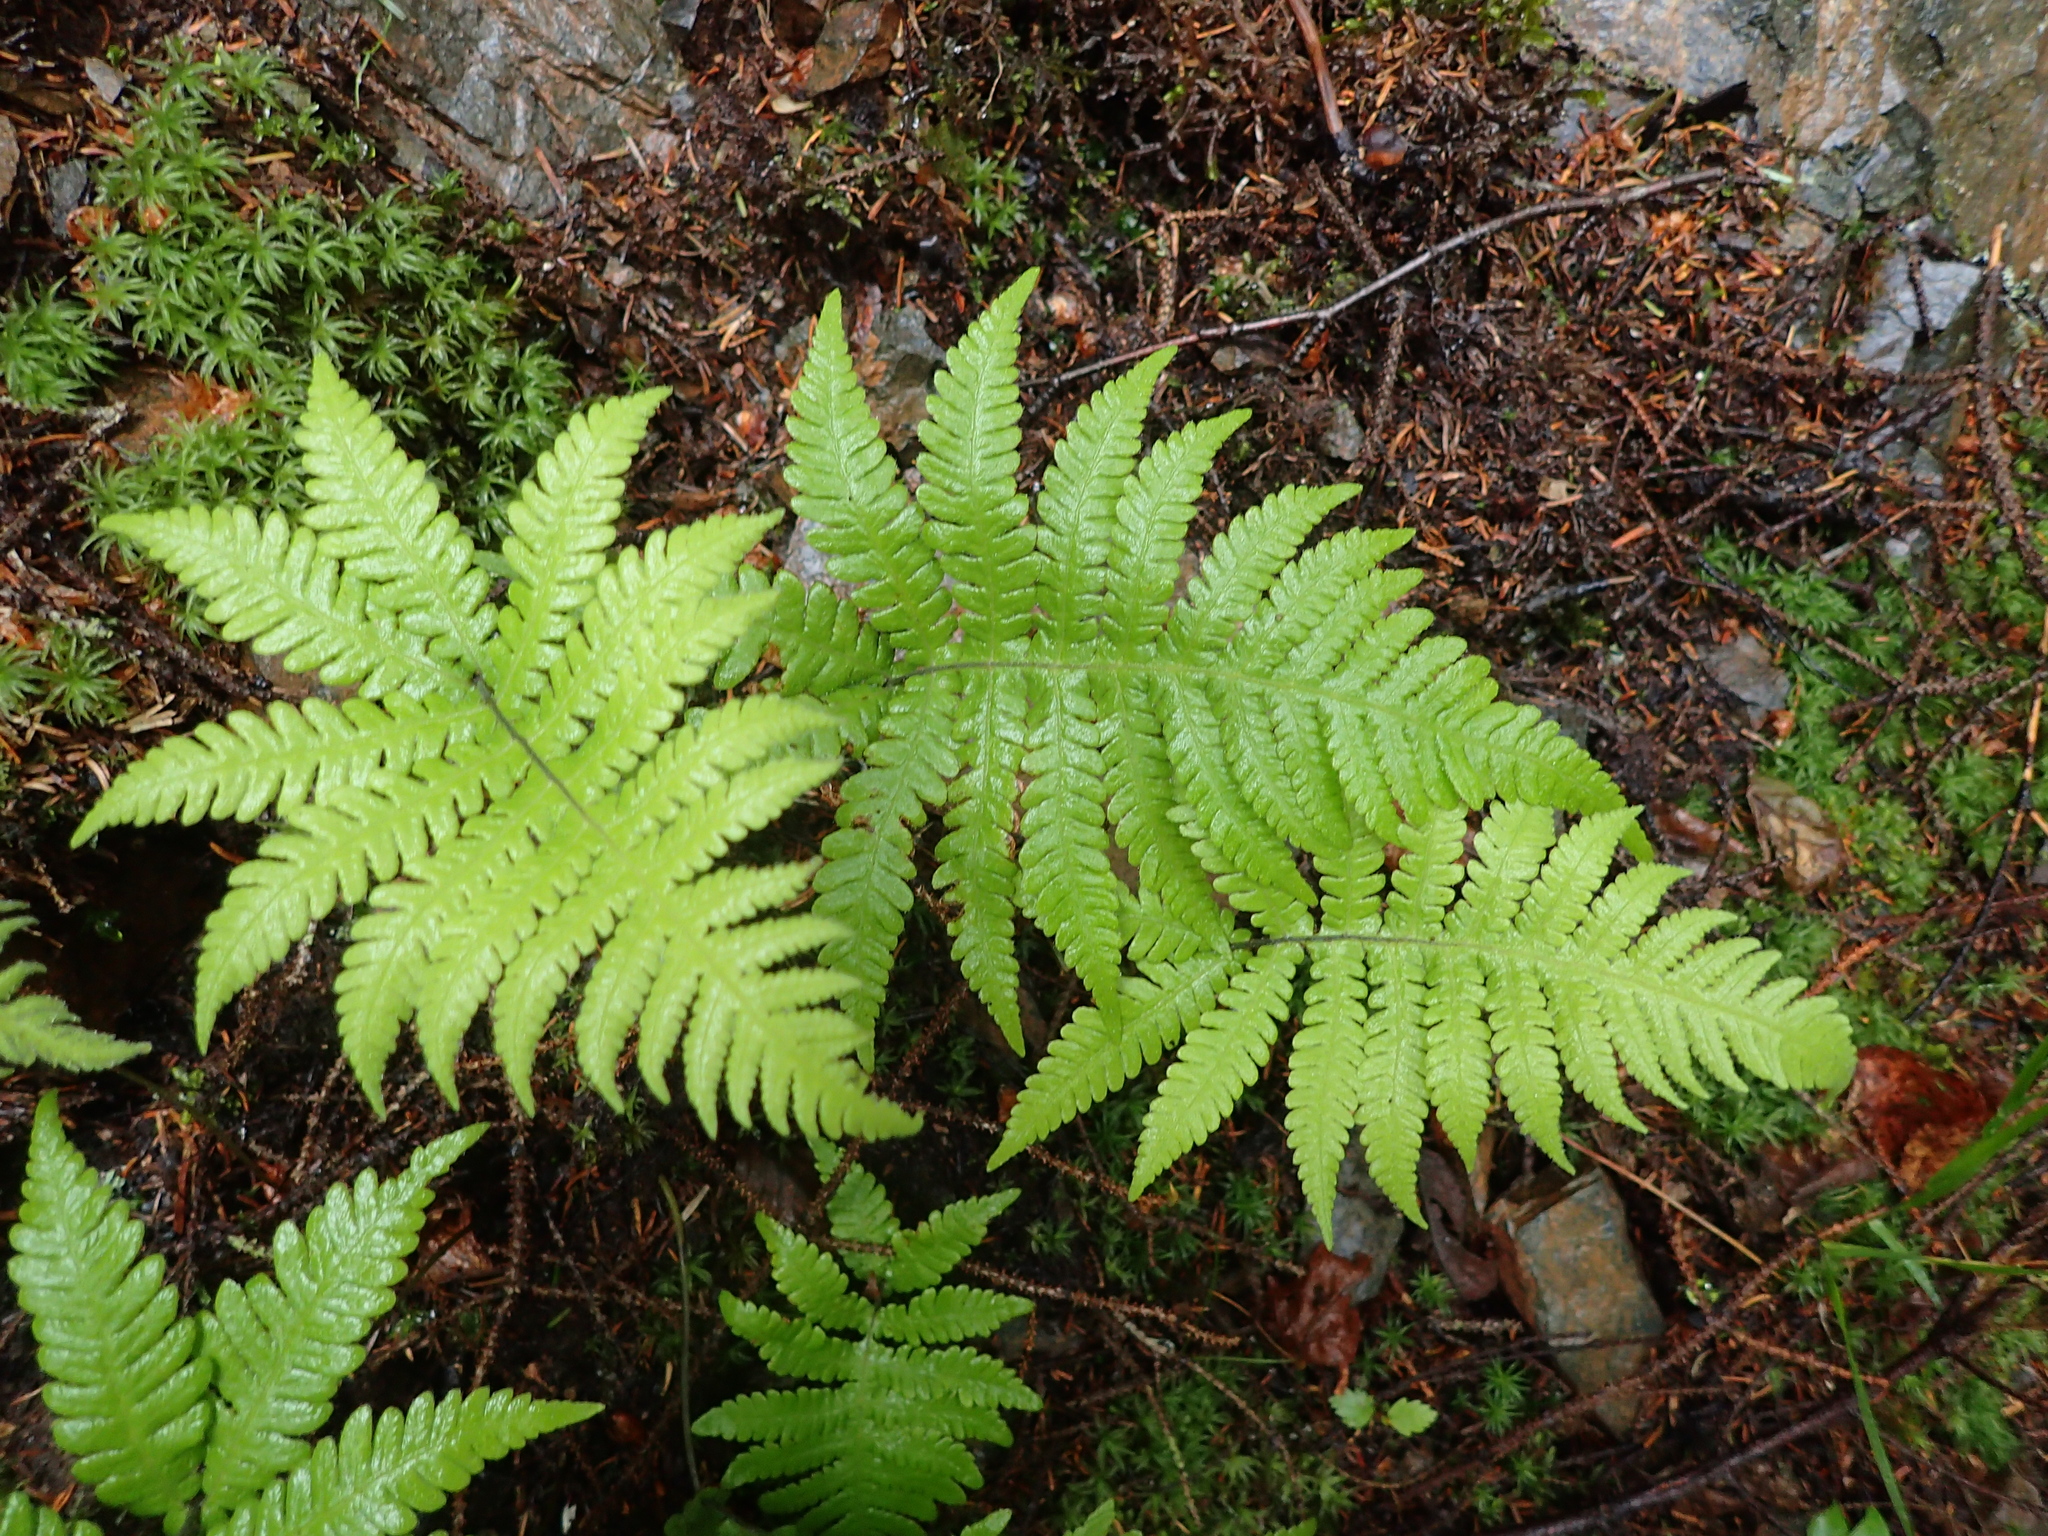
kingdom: Plantae
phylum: Tracheophyta
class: Polypodiopsida
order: Polypodiales
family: Thelypteridaceae
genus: Phegopteris
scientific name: Phegopteris connectilis
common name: Beech fern
